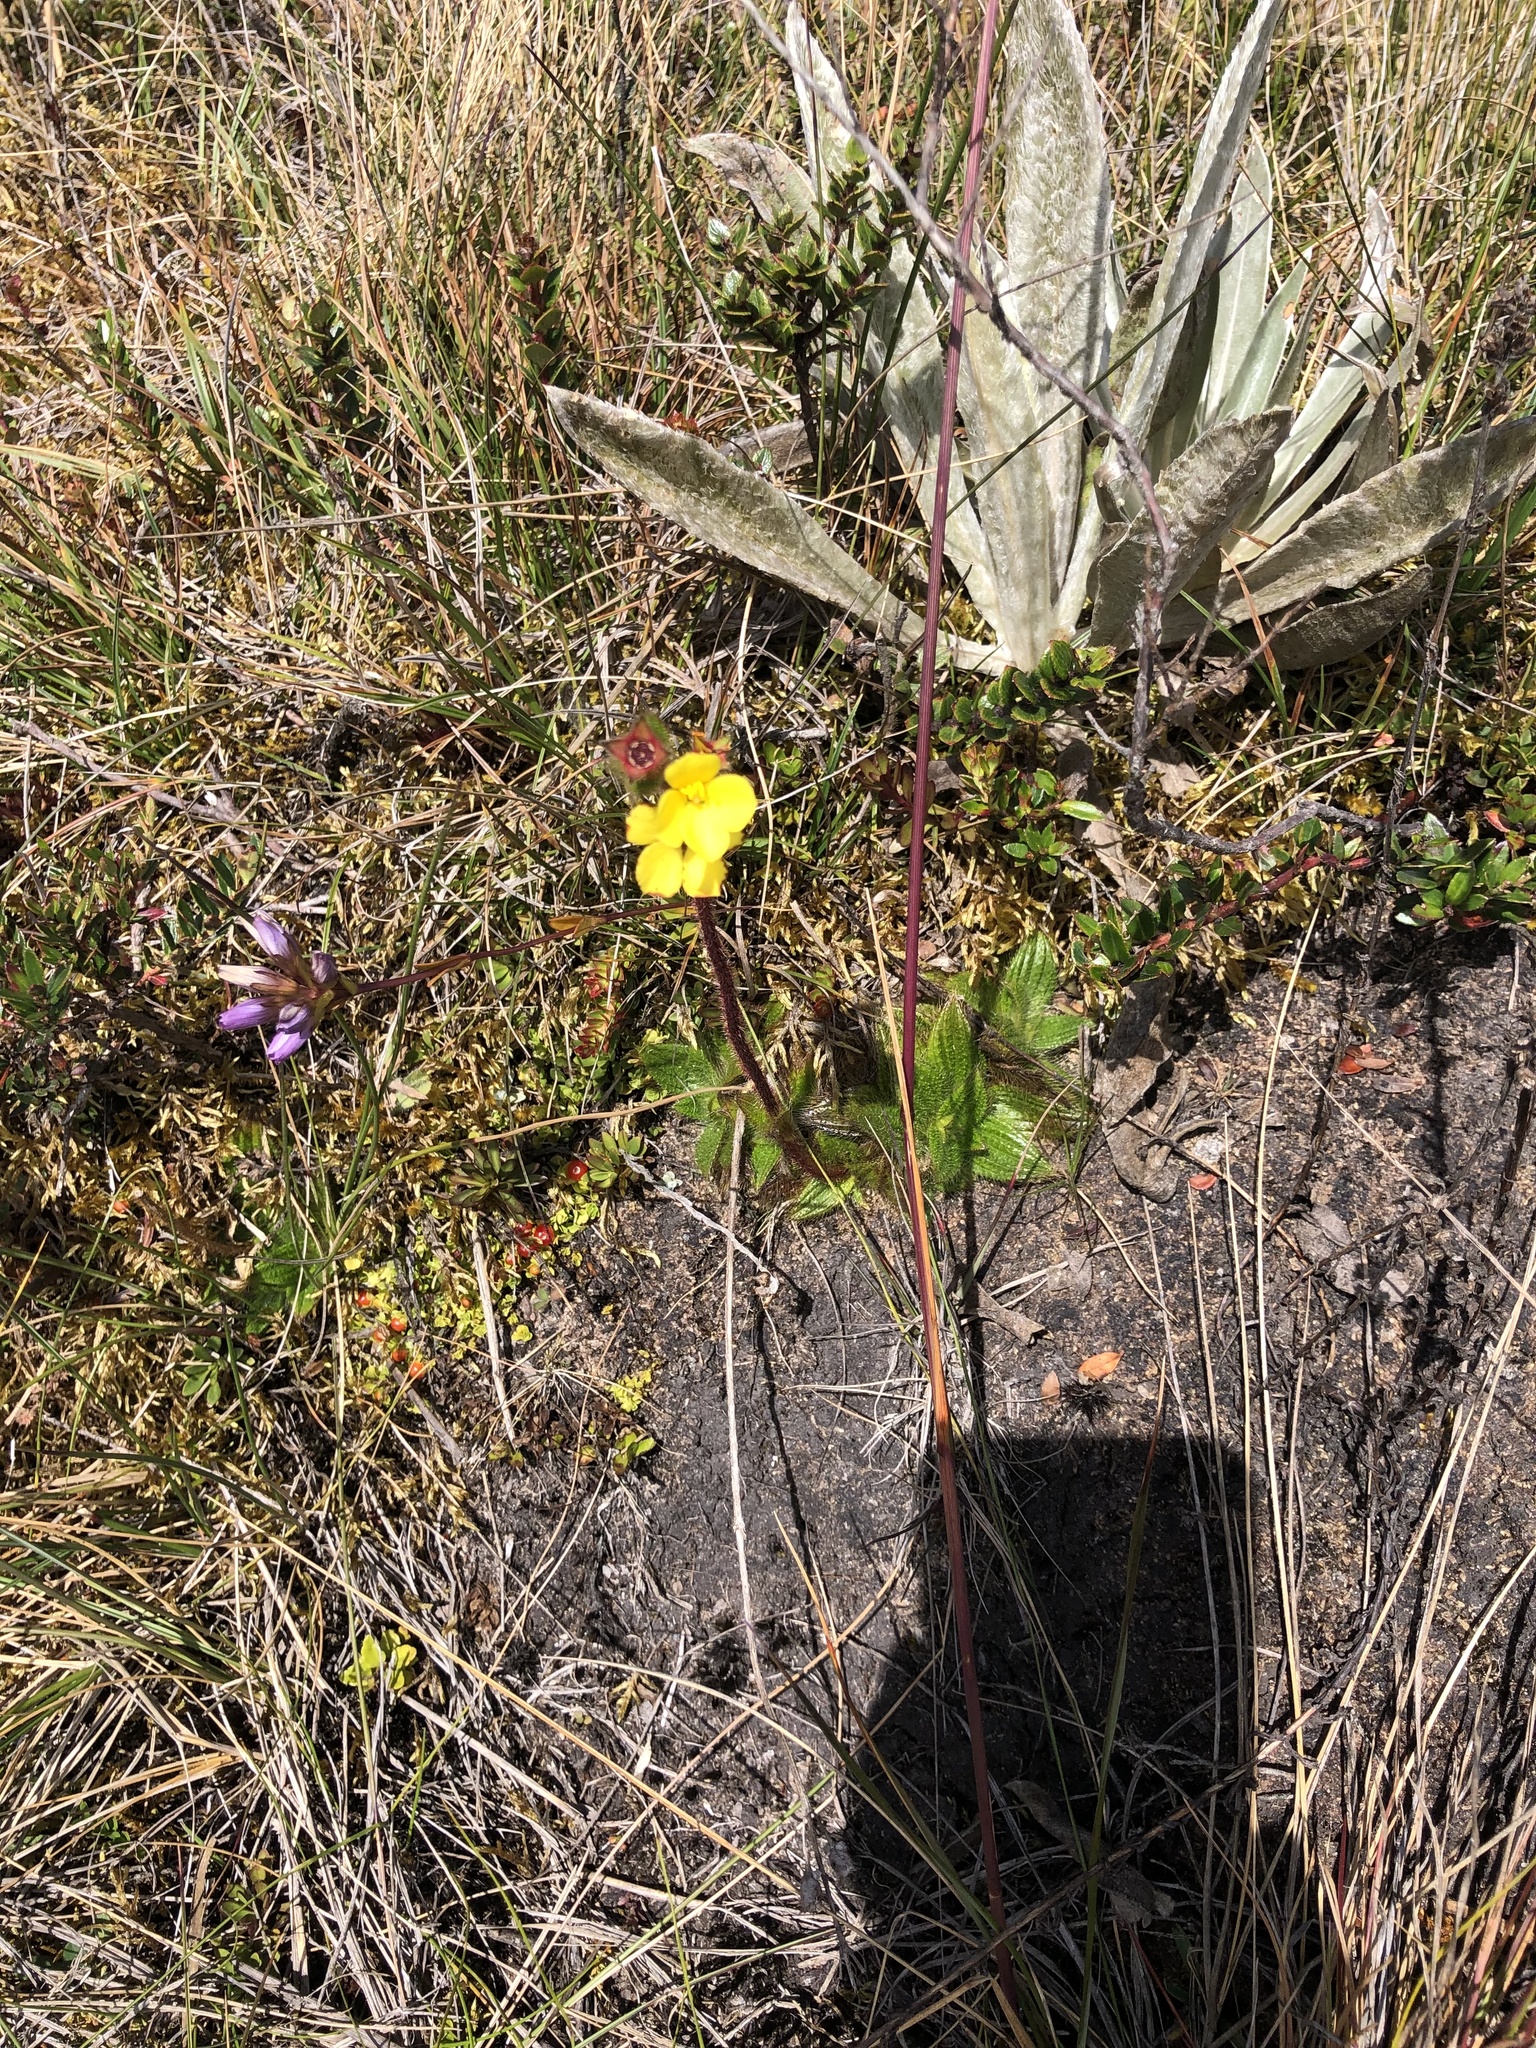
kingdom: Plantae
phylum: Tracheophyta
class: Magnoliopsida
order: Myrtales
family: Melastomataceae
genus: Castratella
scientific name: Castratella piloselloides
